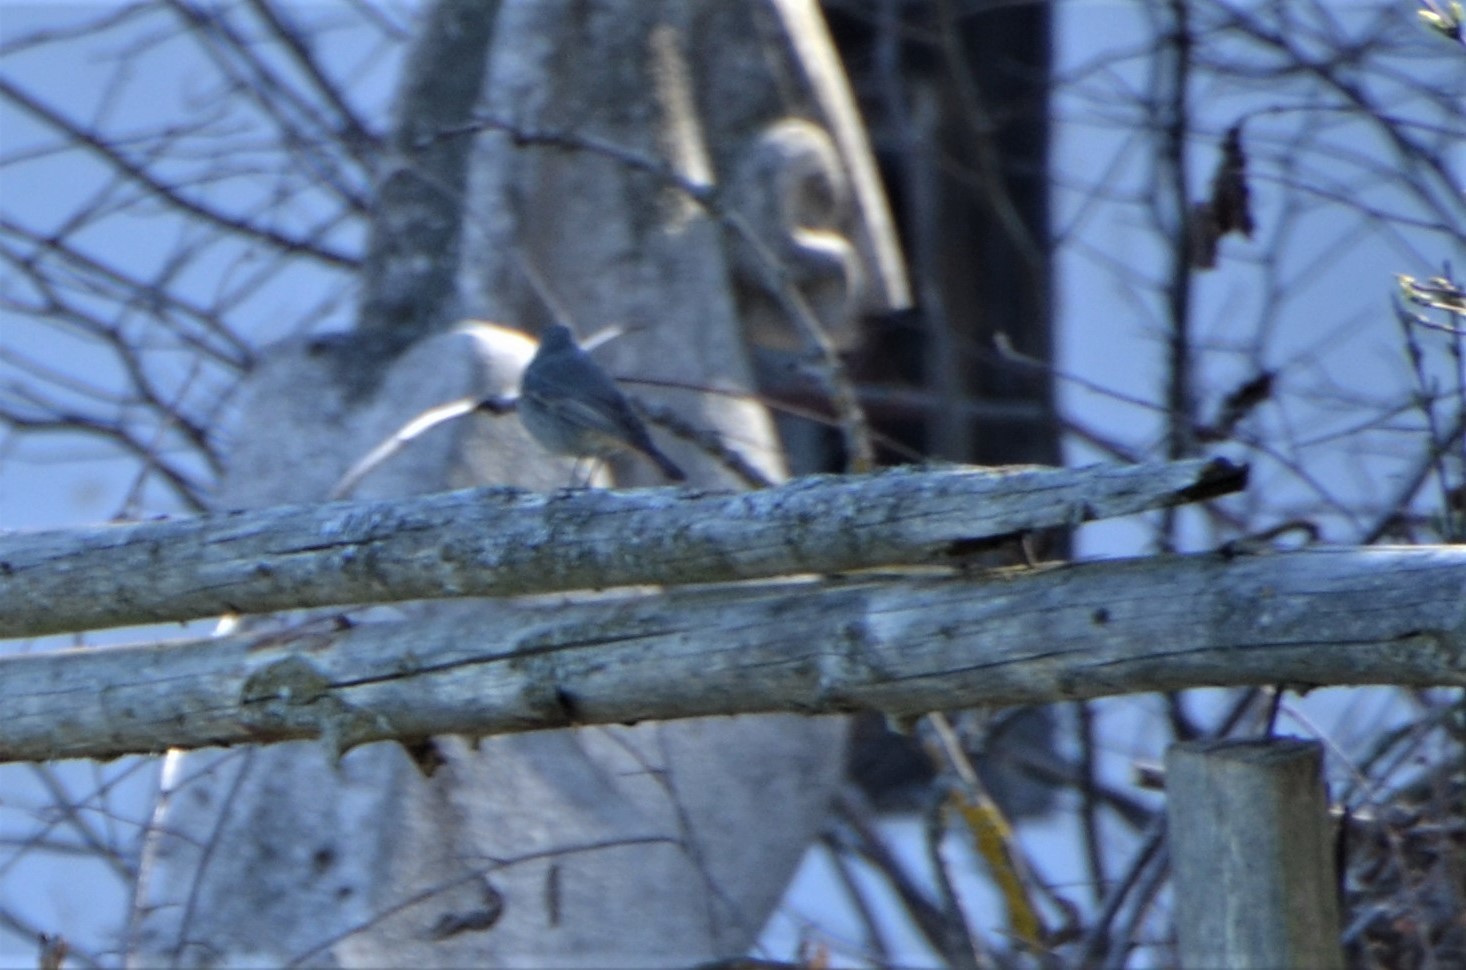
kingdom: Animalia
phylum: Chordata
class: Aves
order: Passeriformes
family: Muscicapidae
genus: Phoenicurus
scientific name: Phoenicurus ochruros
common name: Black redstart
